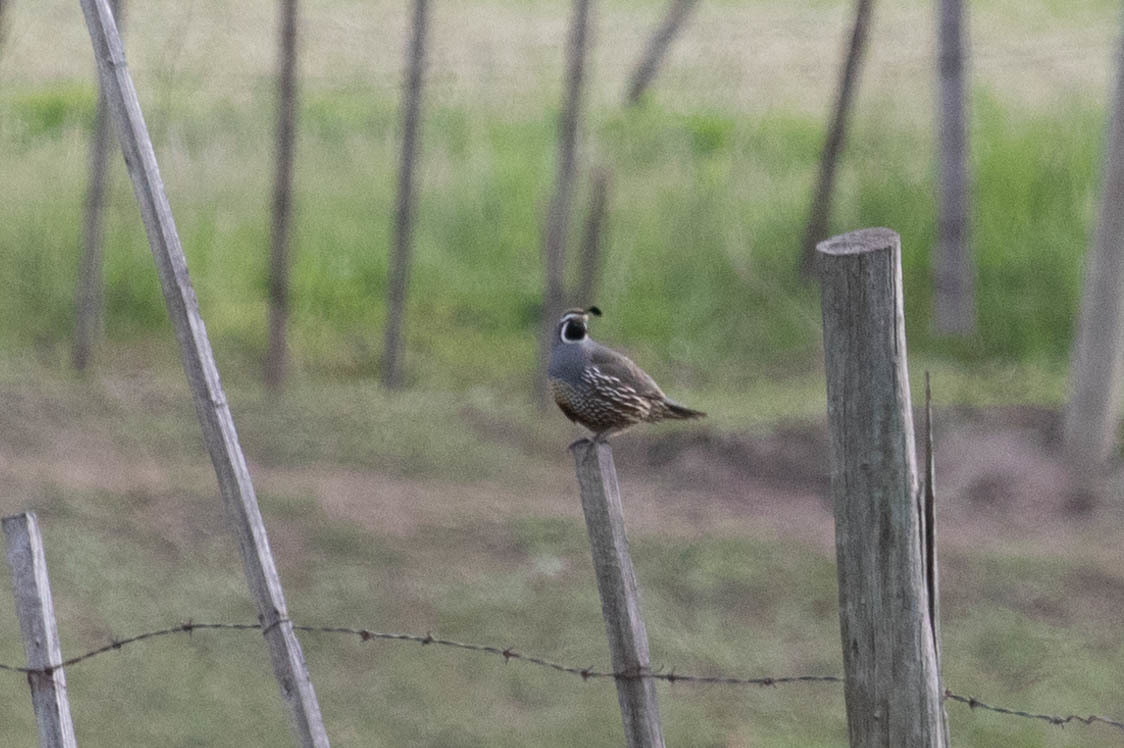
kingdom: Animalia
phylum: Chordata
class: Aves
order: Galliformes
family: Odontophoridae
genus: Callipepla
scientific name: Callipepla californica
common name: California quail
